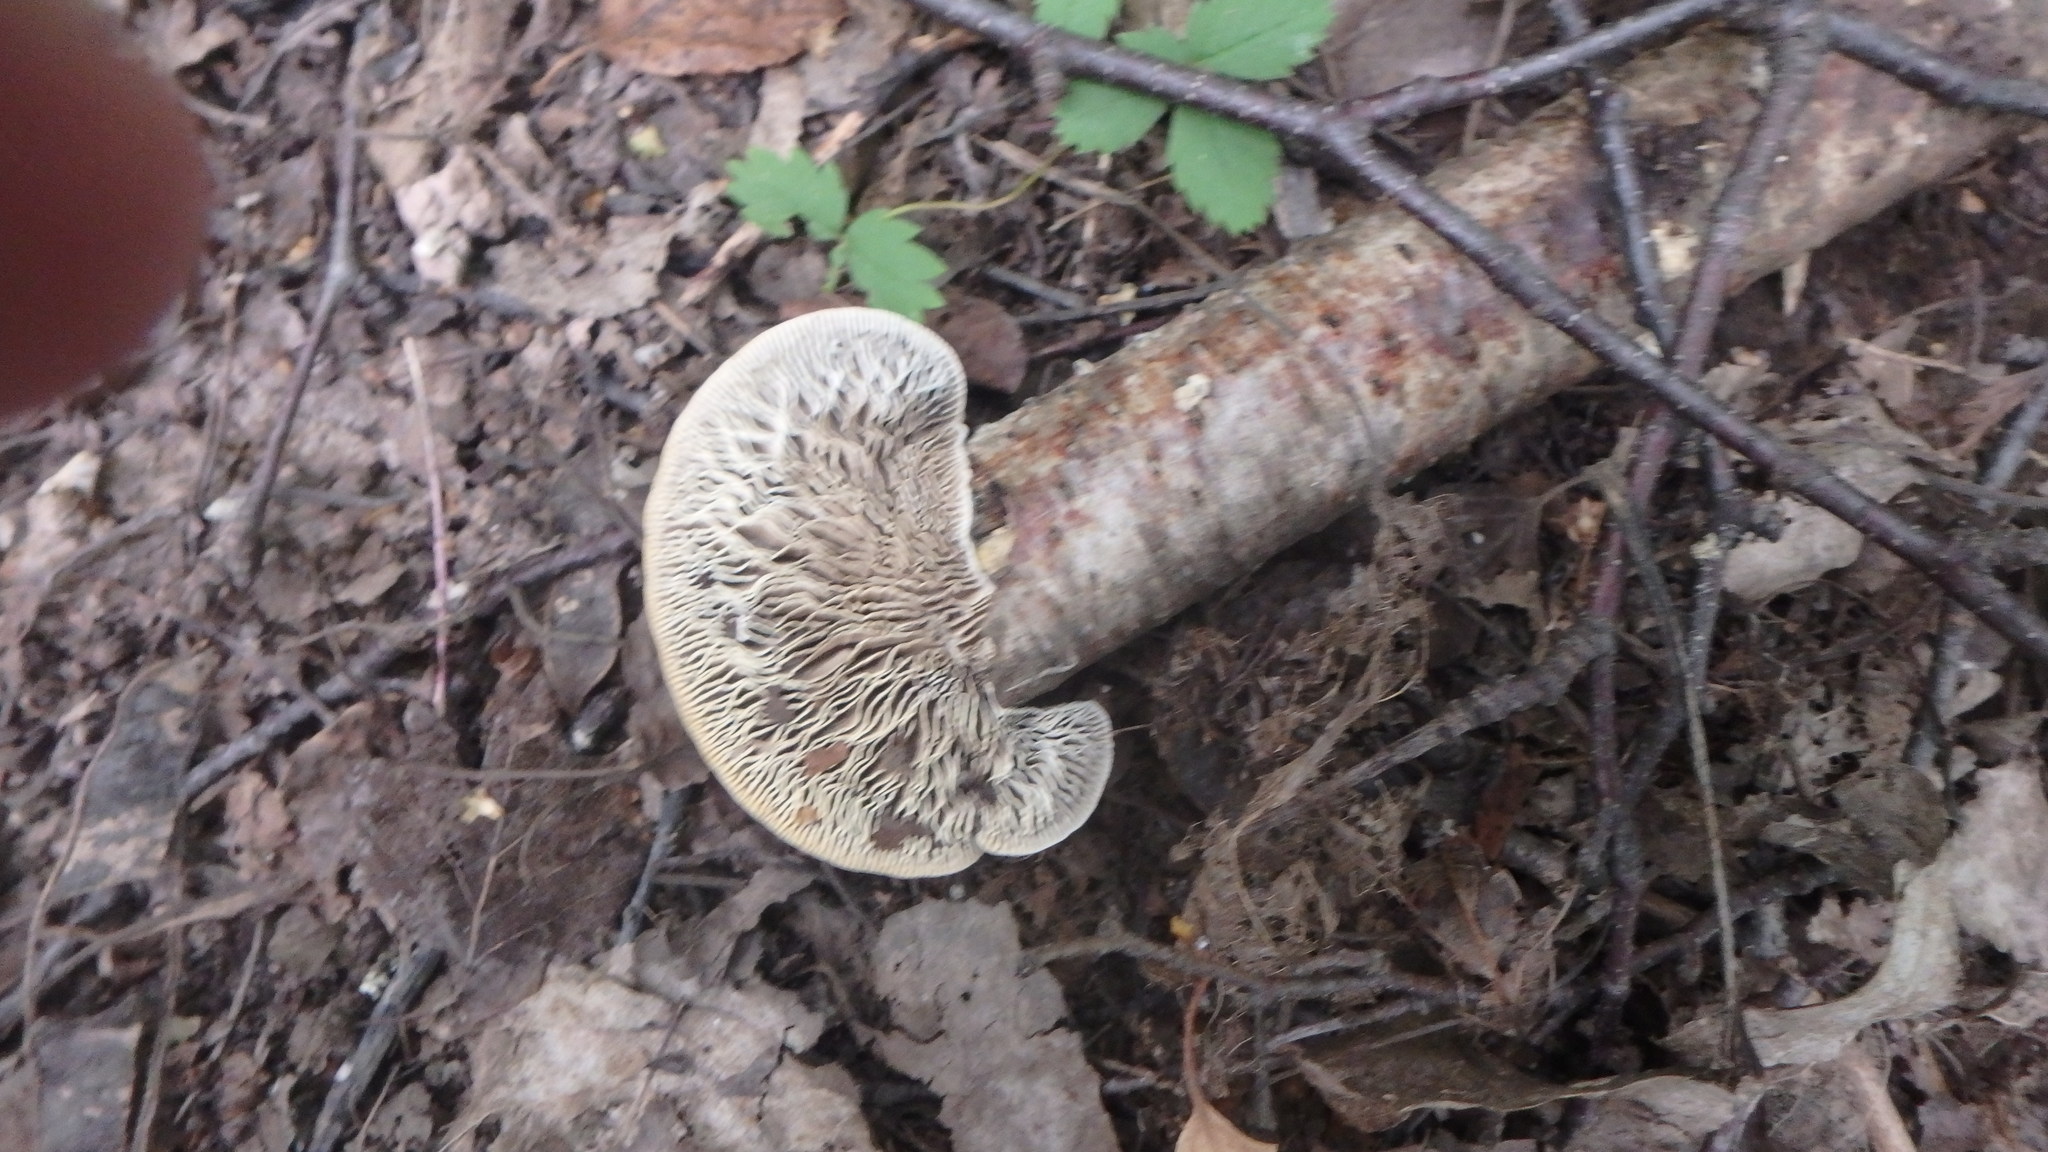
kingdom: Fungi
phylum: Basidiomycota
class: Agaricomycetes
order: Polyporales
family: Polyporaceae
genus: Lenzites
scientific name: Lenzites betulinus
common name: Birch mazegill
